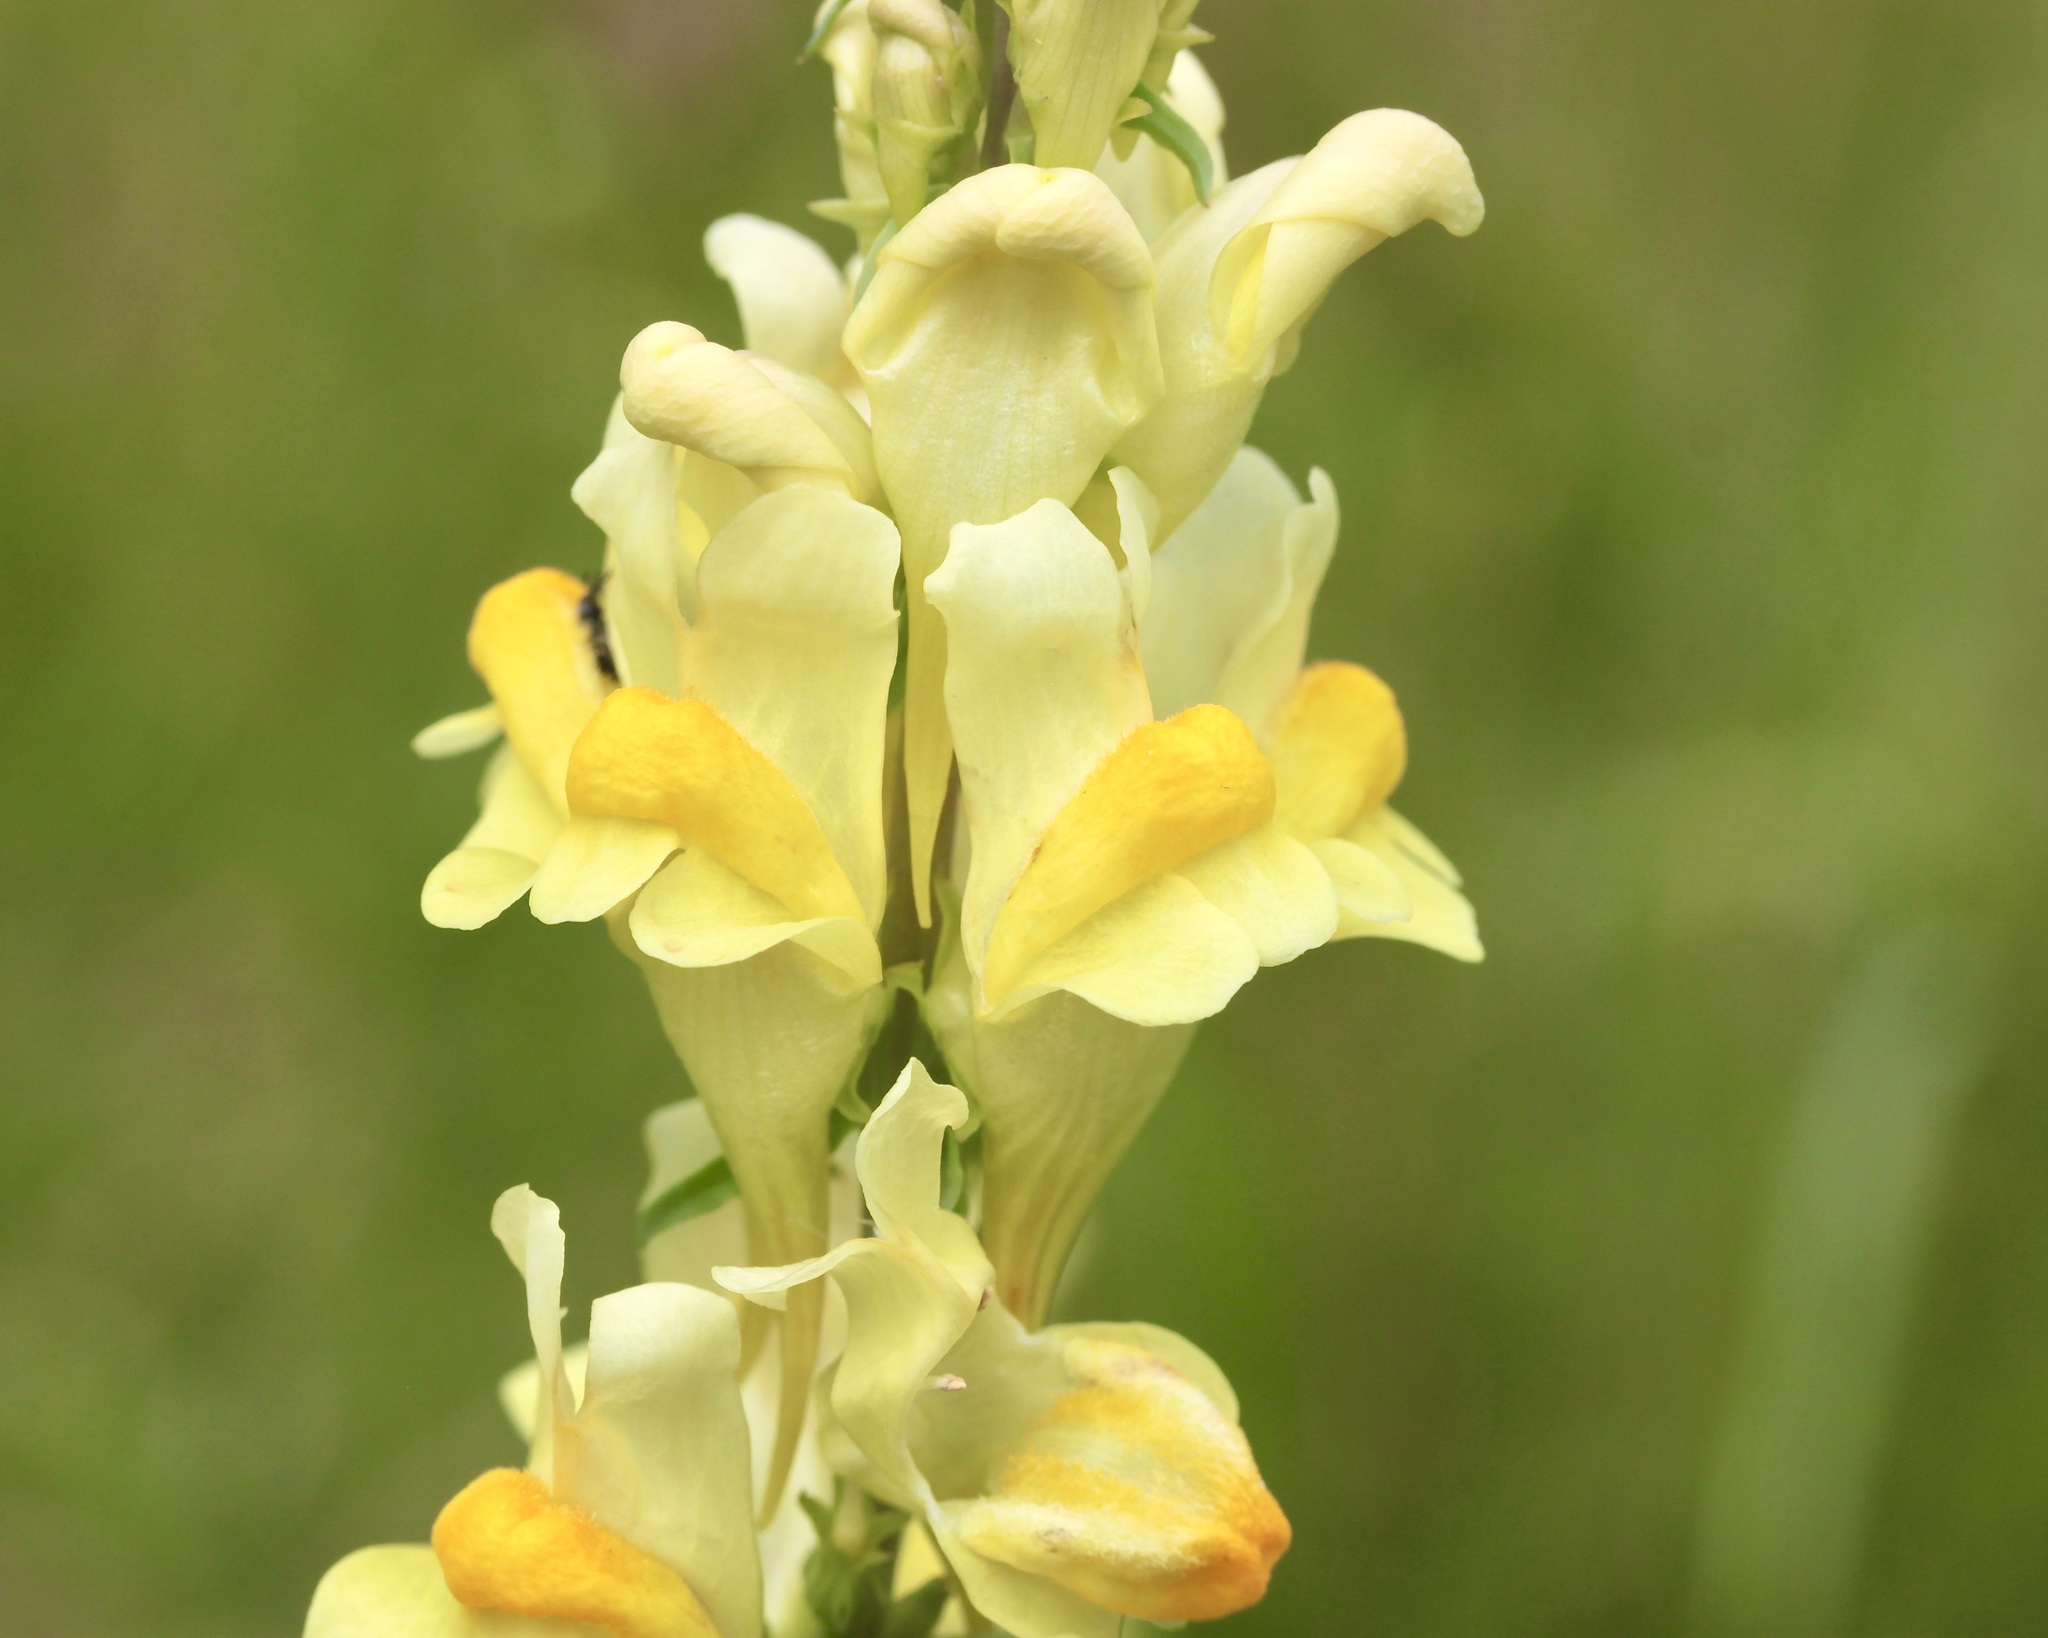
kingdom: Plantae
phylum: Tracheophyta
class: Magnoliopsida
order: Lamiales
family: Plantaginaceae
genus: Linaria
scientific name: Linaria vulgaris
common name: Butter and eggs
